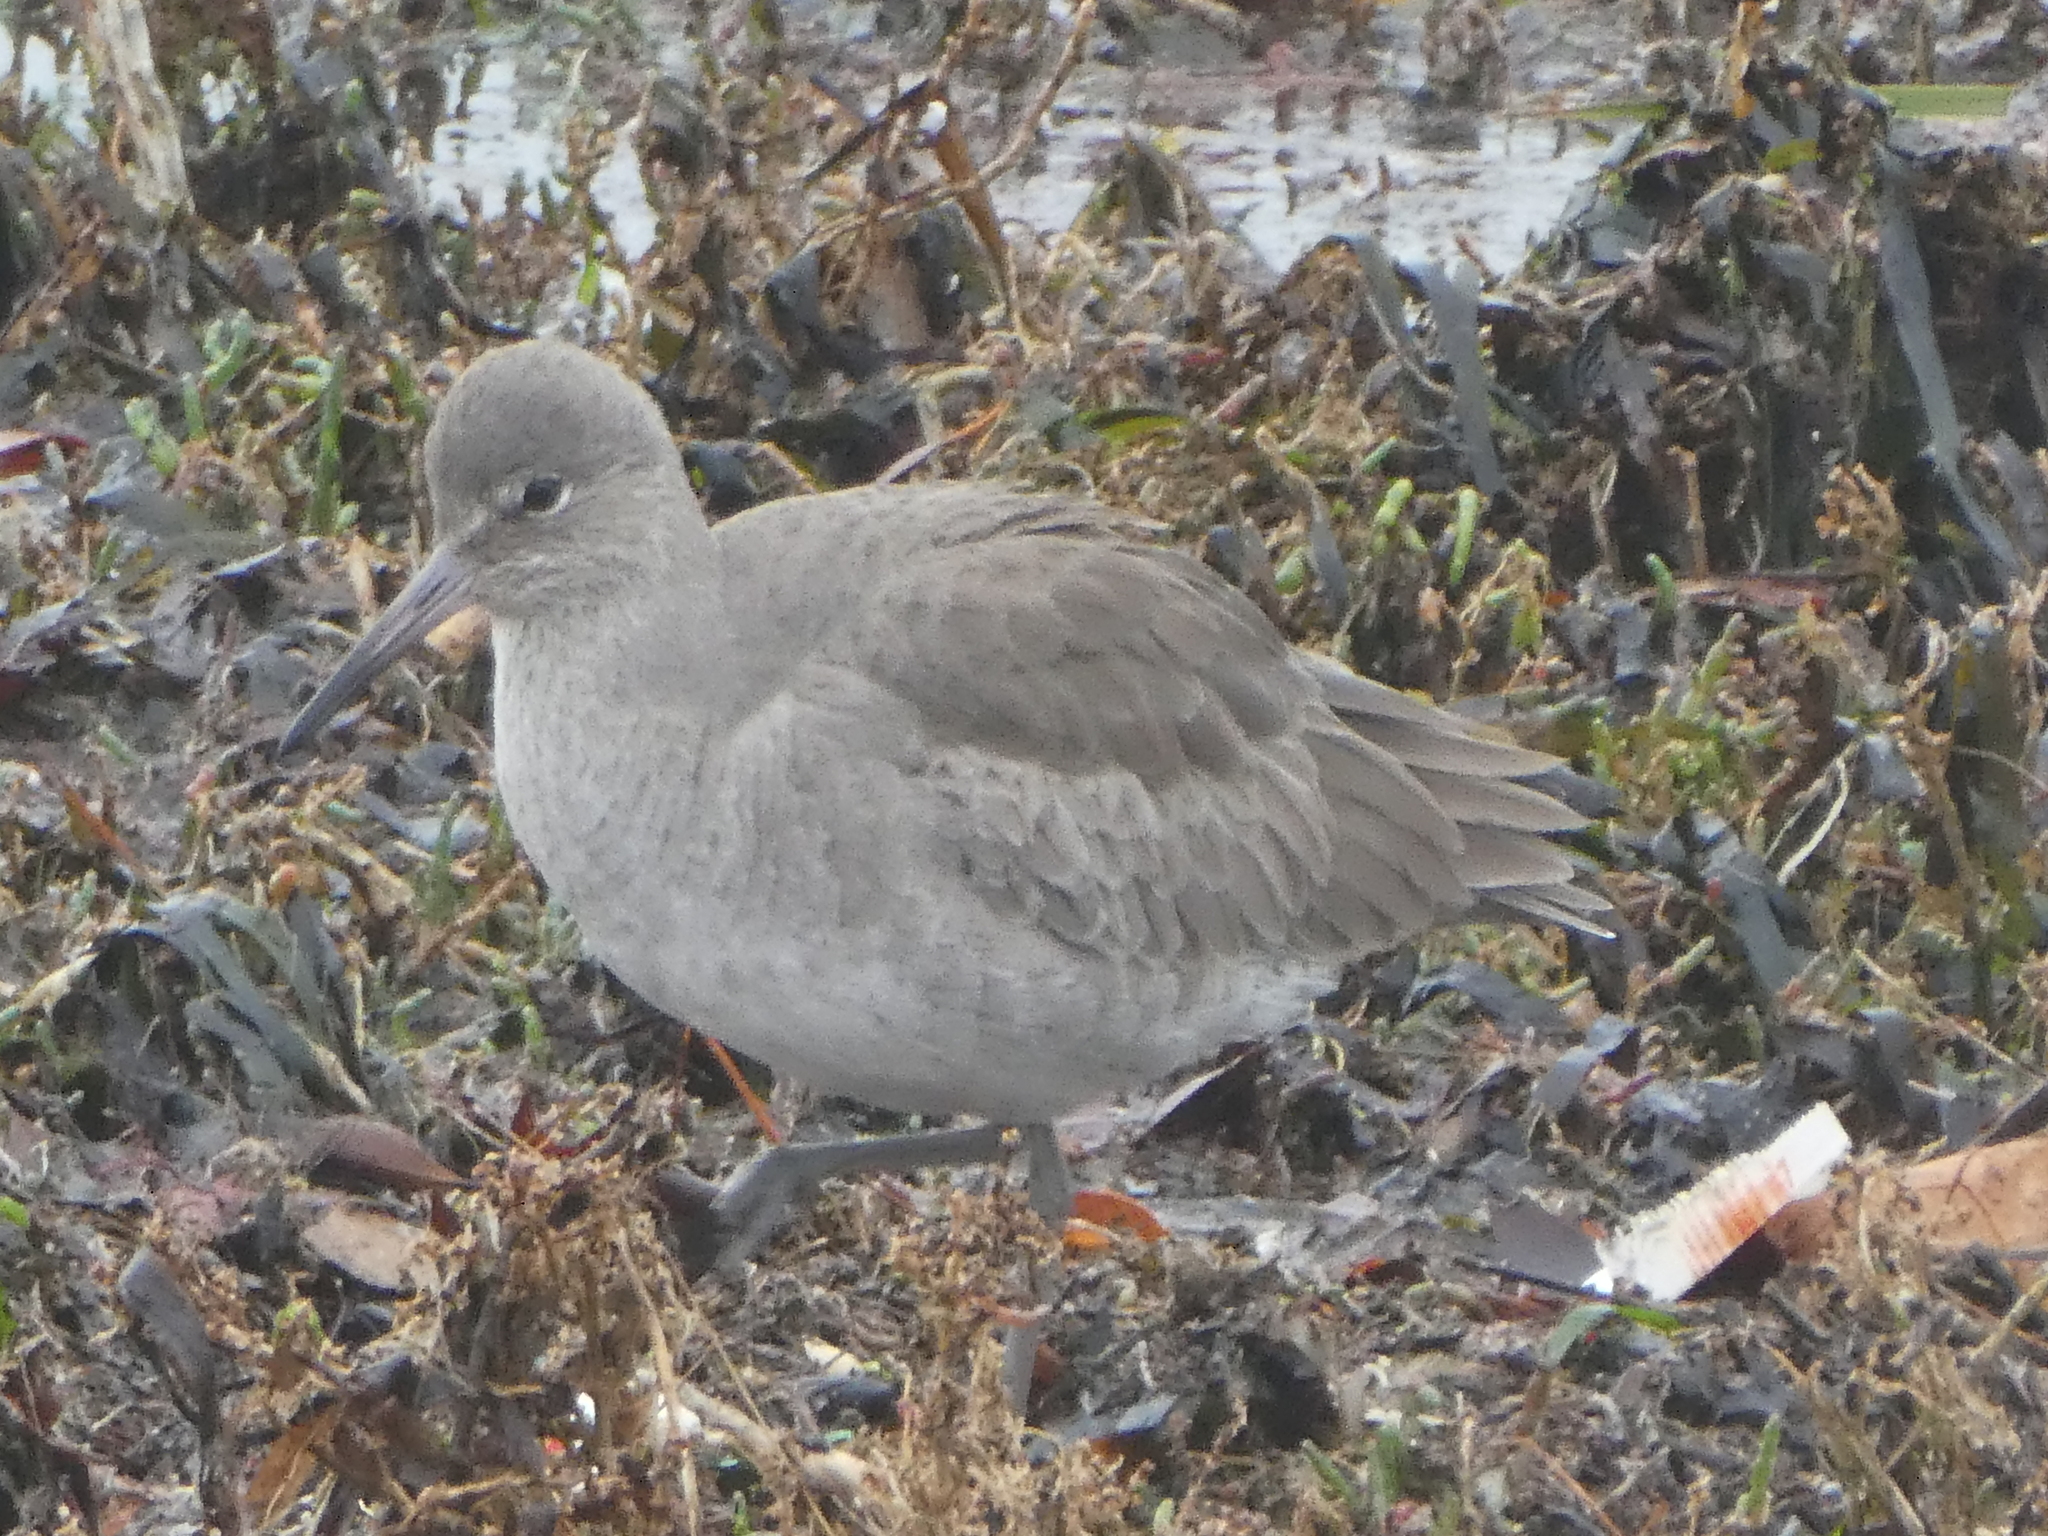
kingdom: Animalia
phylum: Chordata
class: Aves
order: Charadriiformes
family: Scolopacidae
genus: Tringa
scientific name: Tringa semipalmata
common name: Willet
